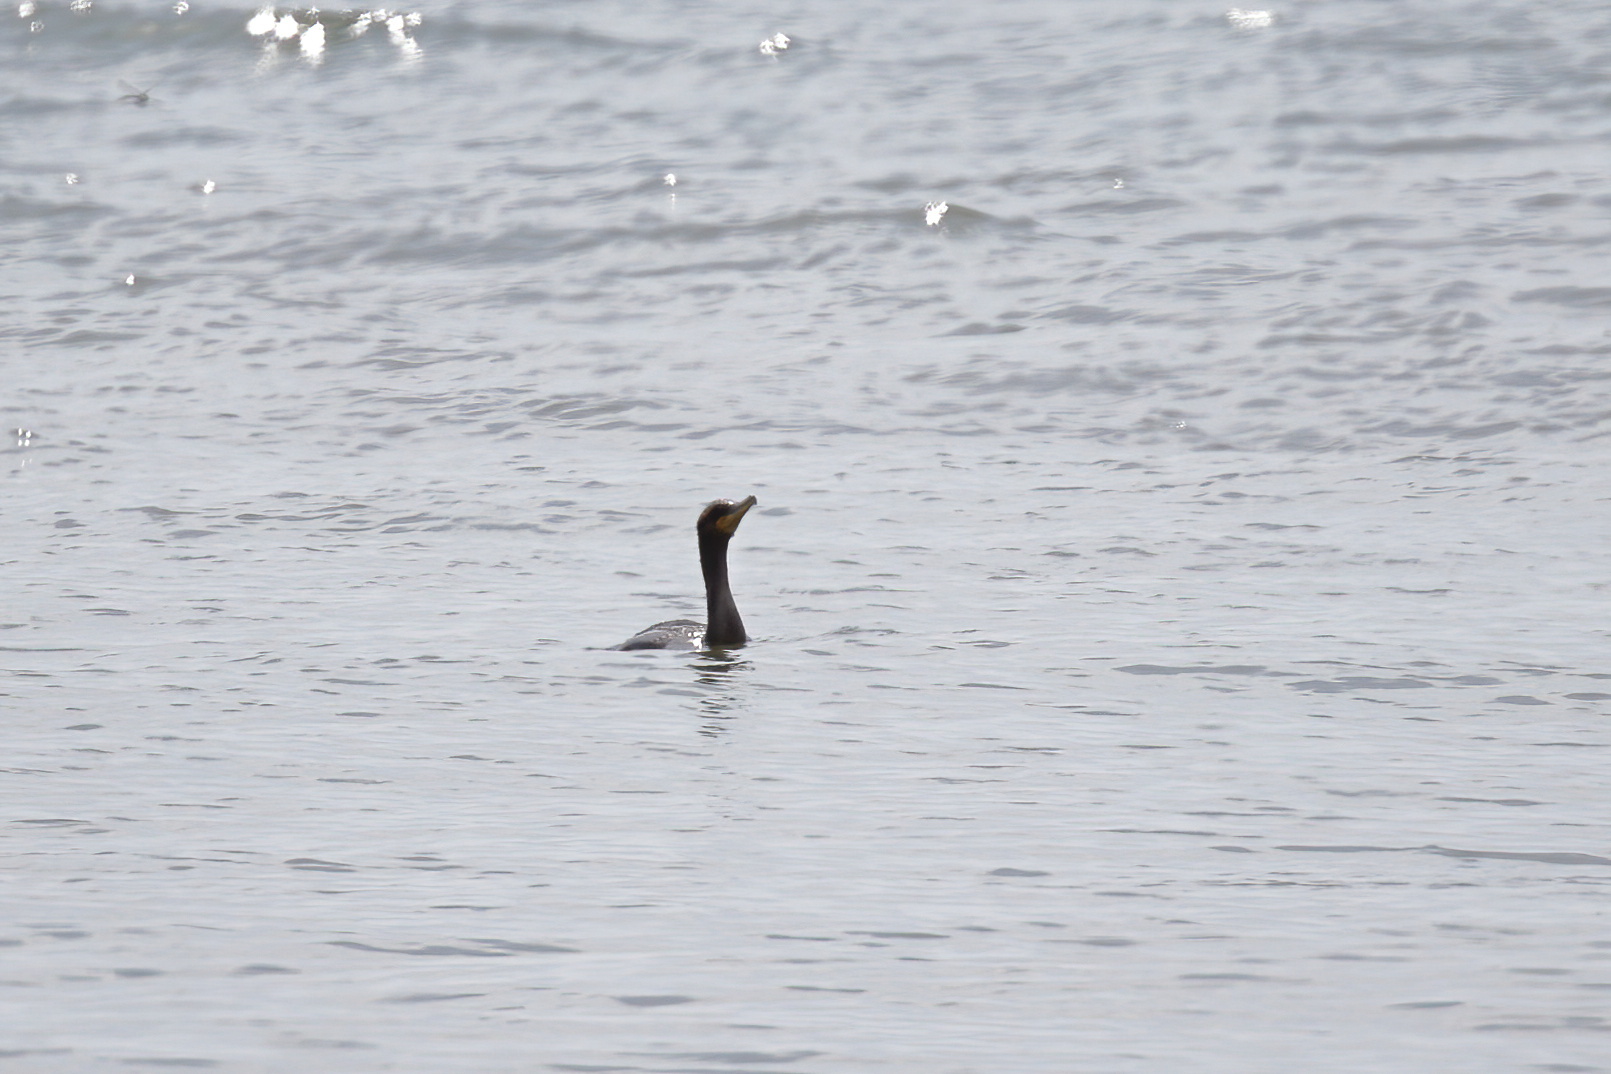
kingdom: Animalia
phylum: Chordata
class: Aves
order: Suliformes
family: Phalacrocoracidae
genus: Phalacrocorax
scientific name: Phalacrocorax auritus
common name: Double-crested cormorant
